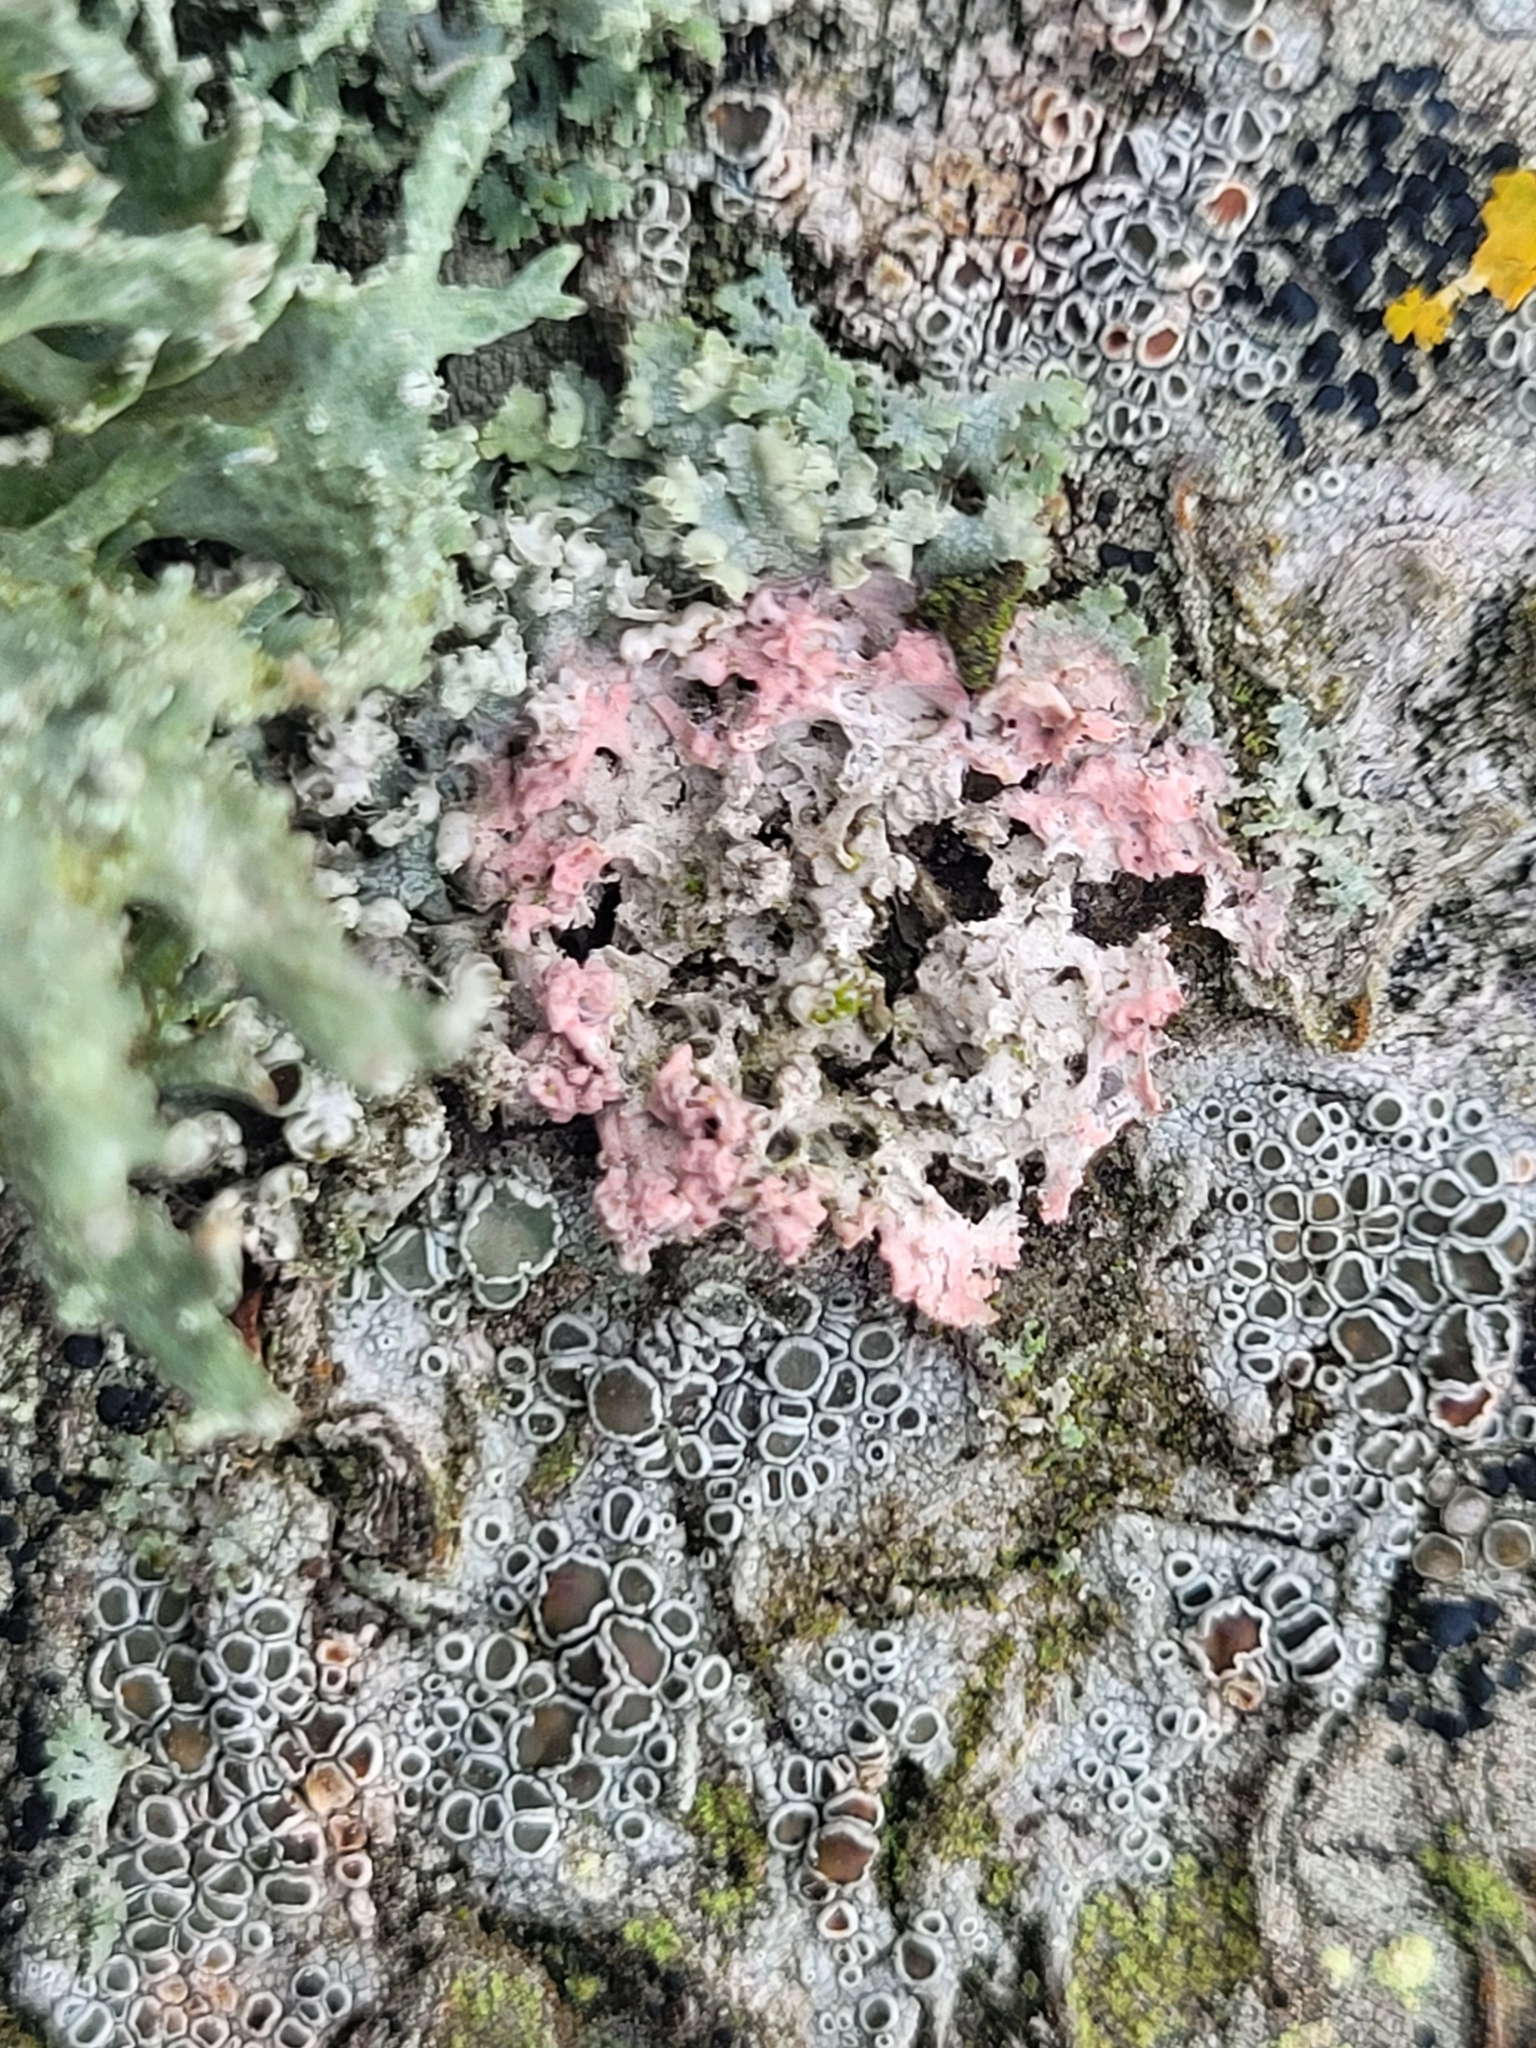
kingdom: Fungi
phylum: Basidiomycota
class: Agaricomycetes
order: Corticiales
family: Corticiaceae
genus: Laetisaria
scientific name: Laetisaria lichenicola
